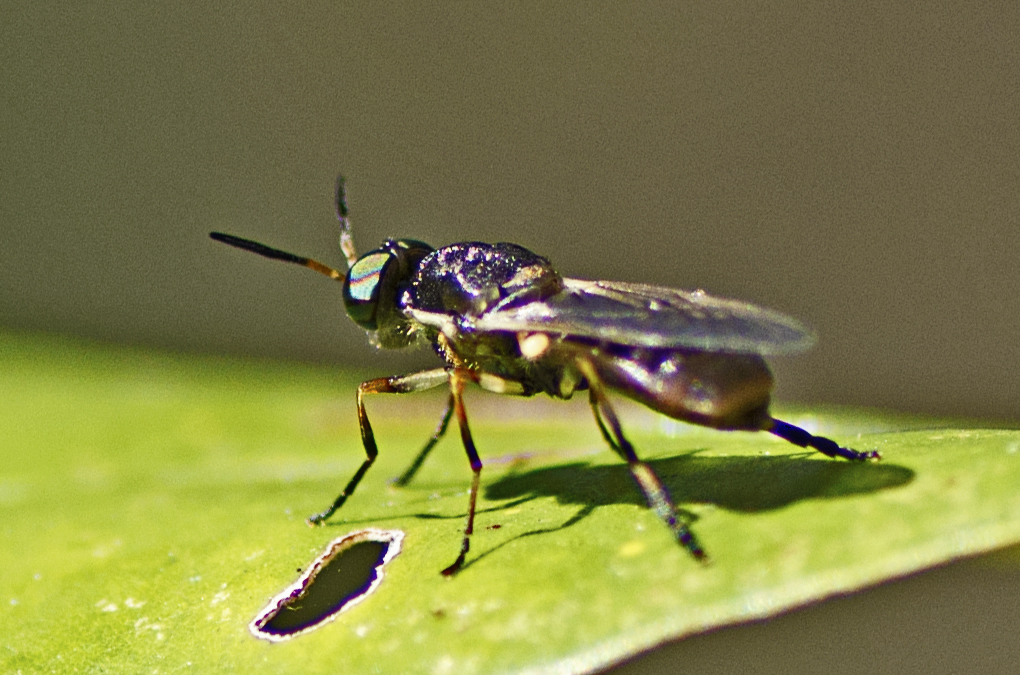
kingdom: Animalia
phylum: Arthropoda
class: Insecta
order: Diptera
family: Stratiomyidae
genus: Lagenosoma
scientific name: Lagenosoma dispar
